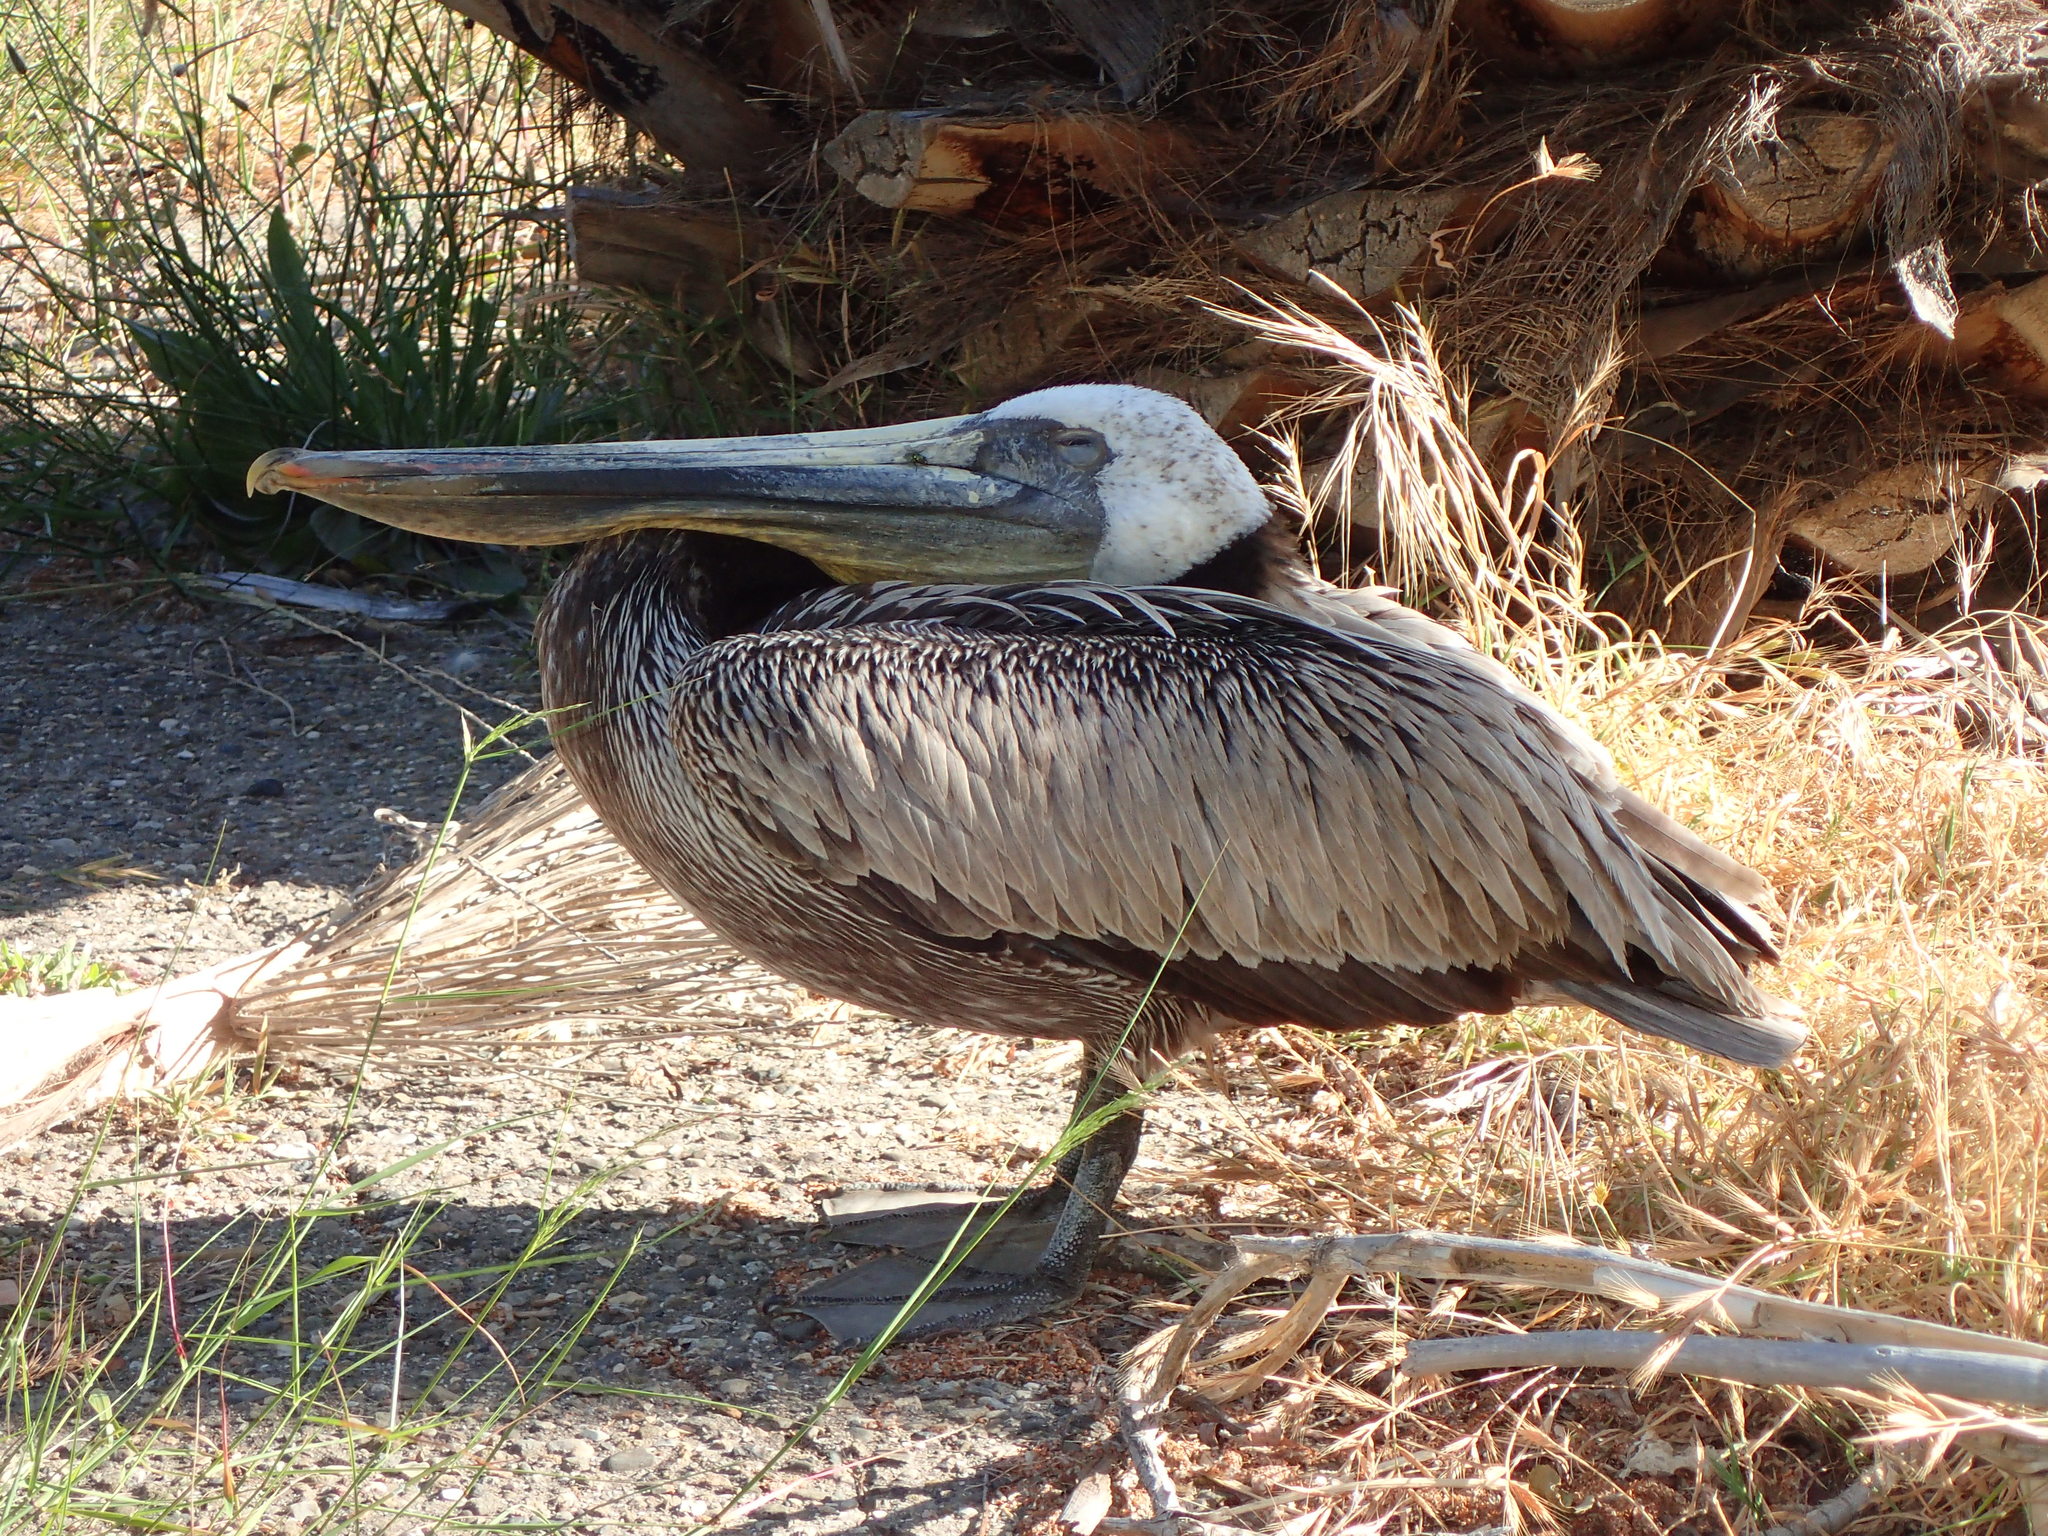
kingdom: Animalia
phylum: Chordata
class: Aves
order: Pelecaniformes
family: Pelecanidae
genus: Pelecanus
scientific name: Pelecanus occidentalis
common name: Brown pelican
